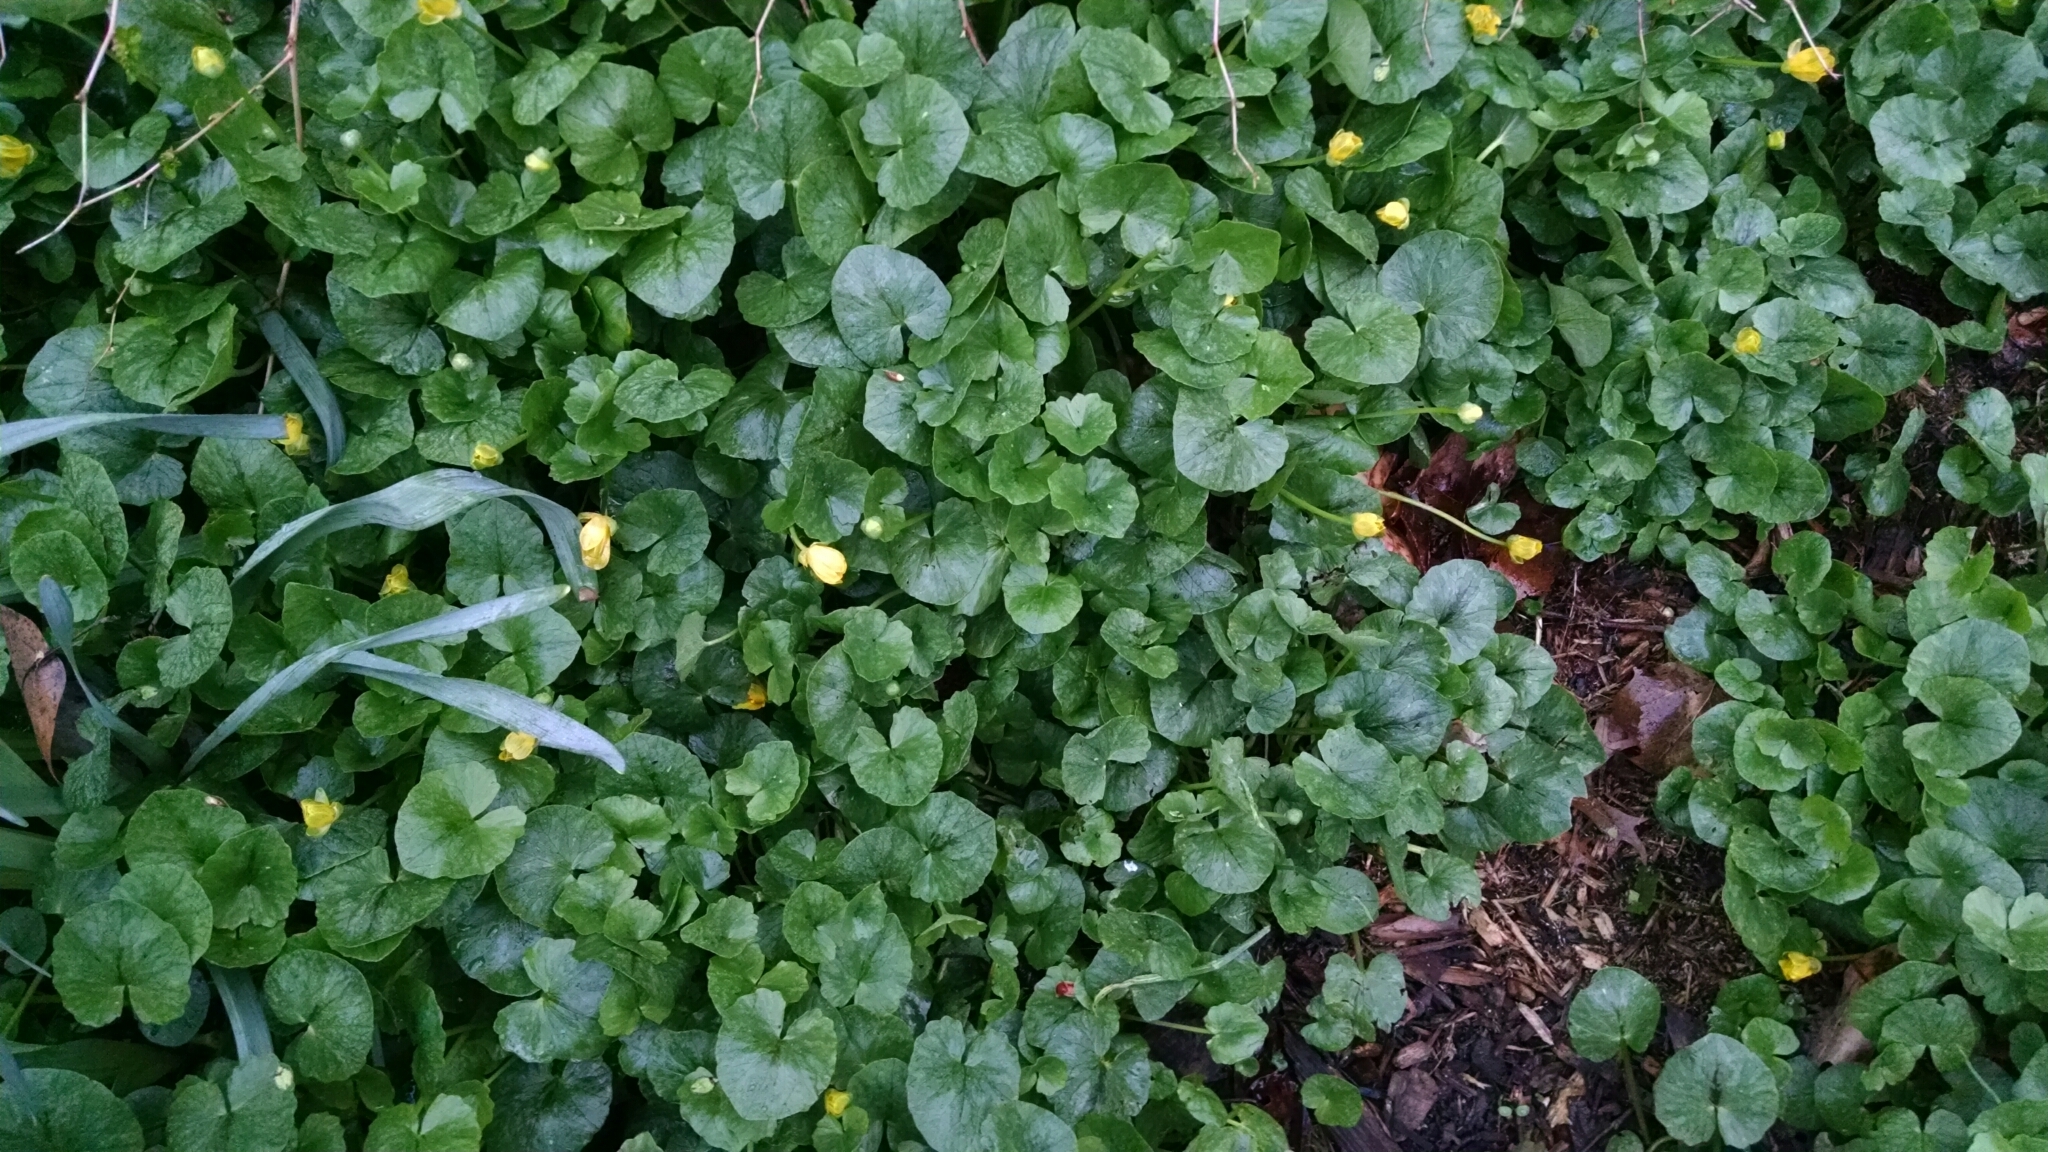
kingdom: Plantae
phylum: Tracheophyta
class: Magnoliopsida
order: Ranunculales
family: Ranunculaceae
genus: Ficaria
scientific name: Ficaria verna
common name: Lesser celandine
